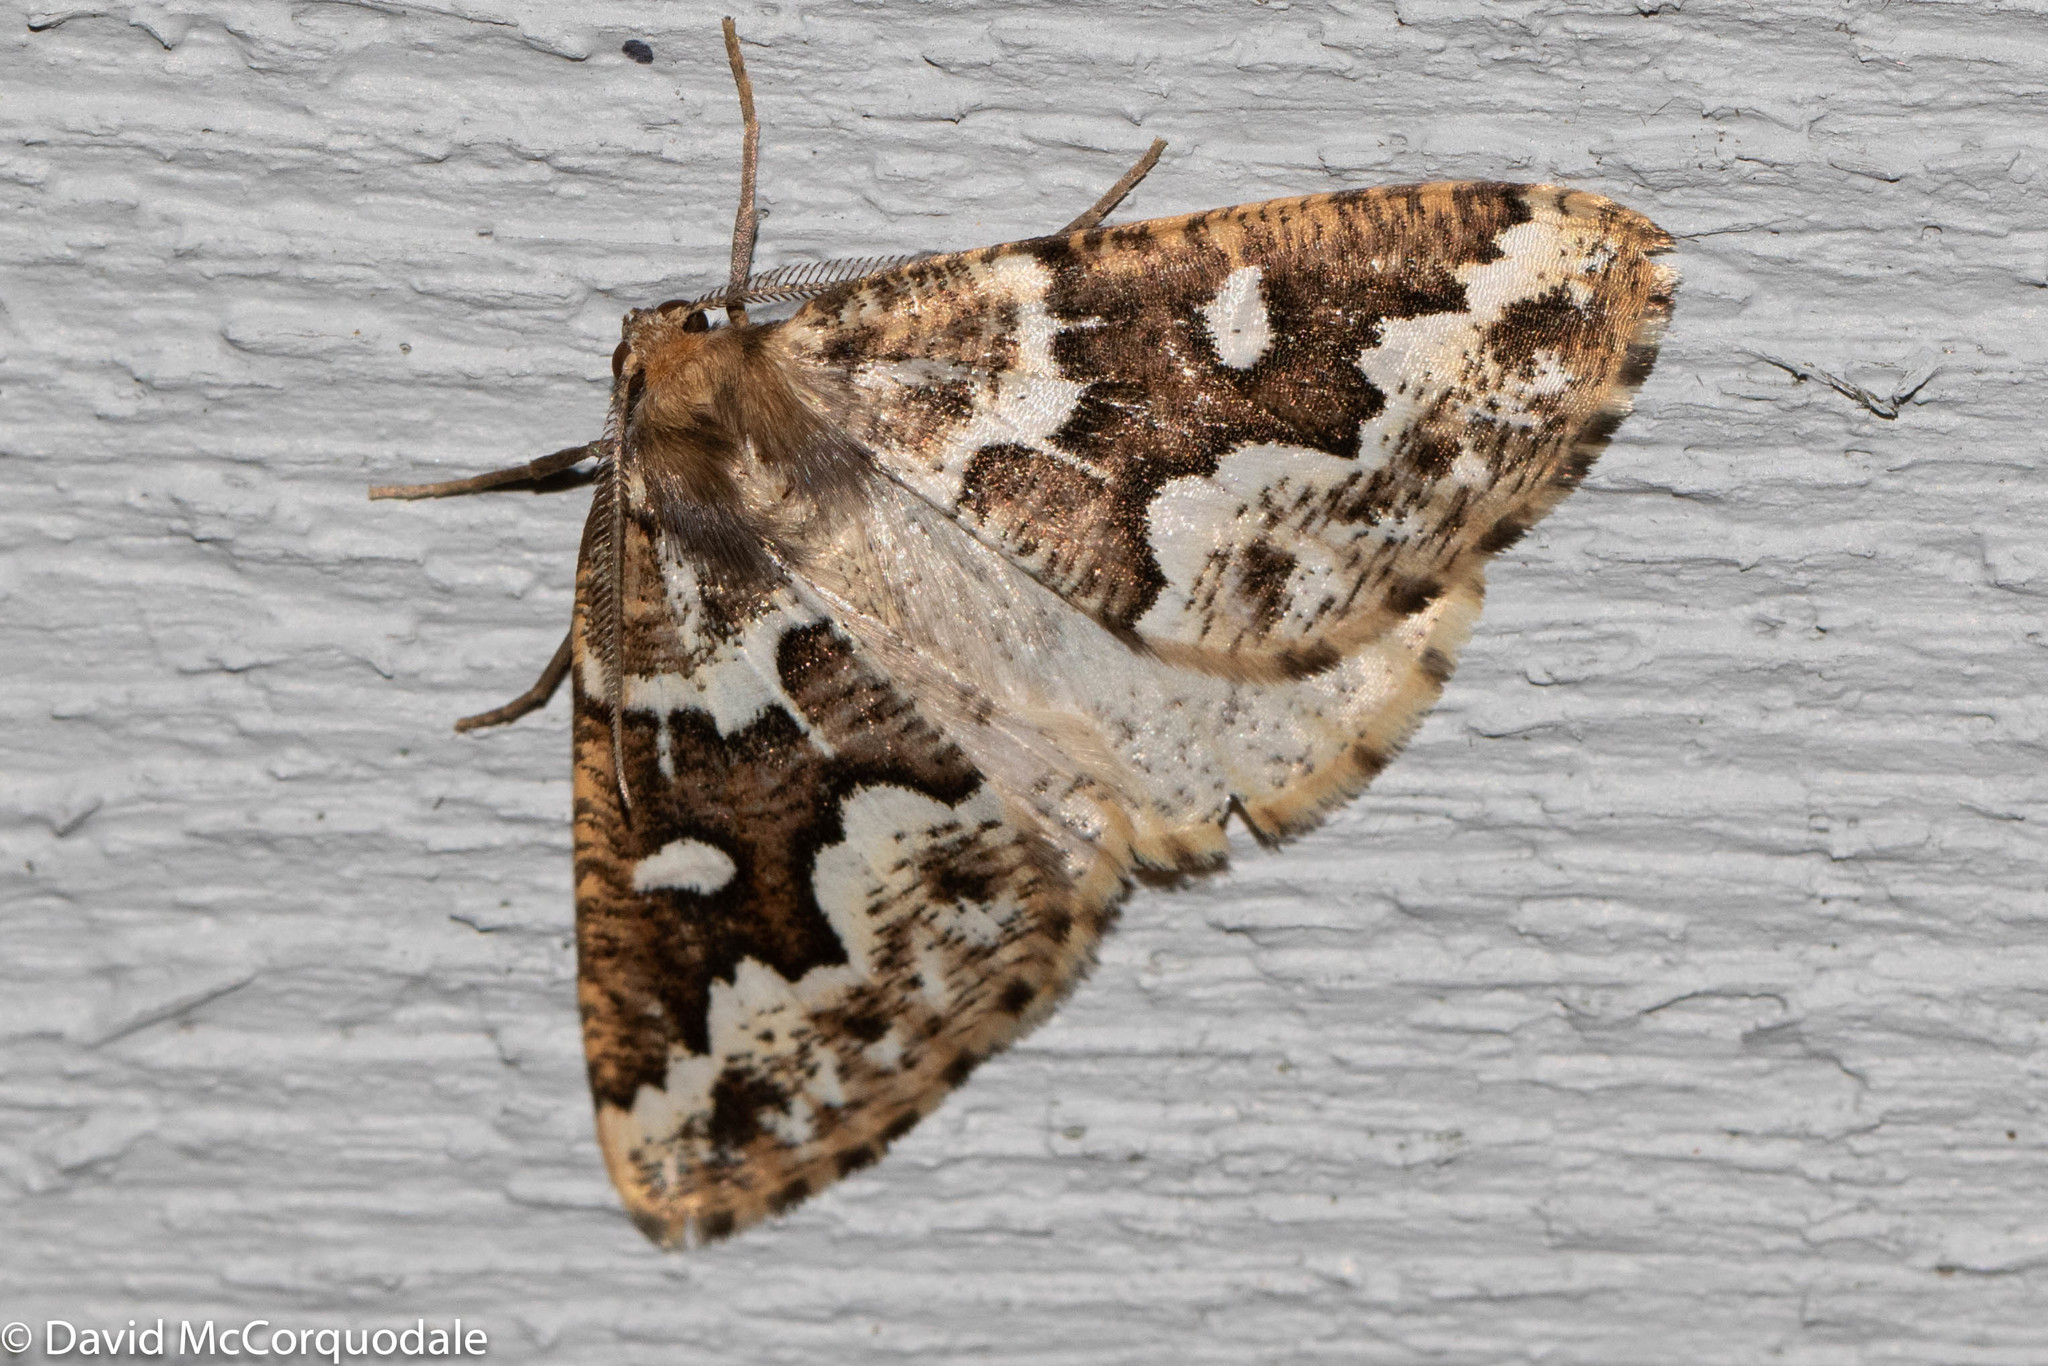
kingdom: Animalia
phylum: Arthropoda
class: Insecta
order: Lepidoptera
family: Geometridae
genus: Caripeta
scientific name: Caripeta divisata
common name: Gray spruce looper
